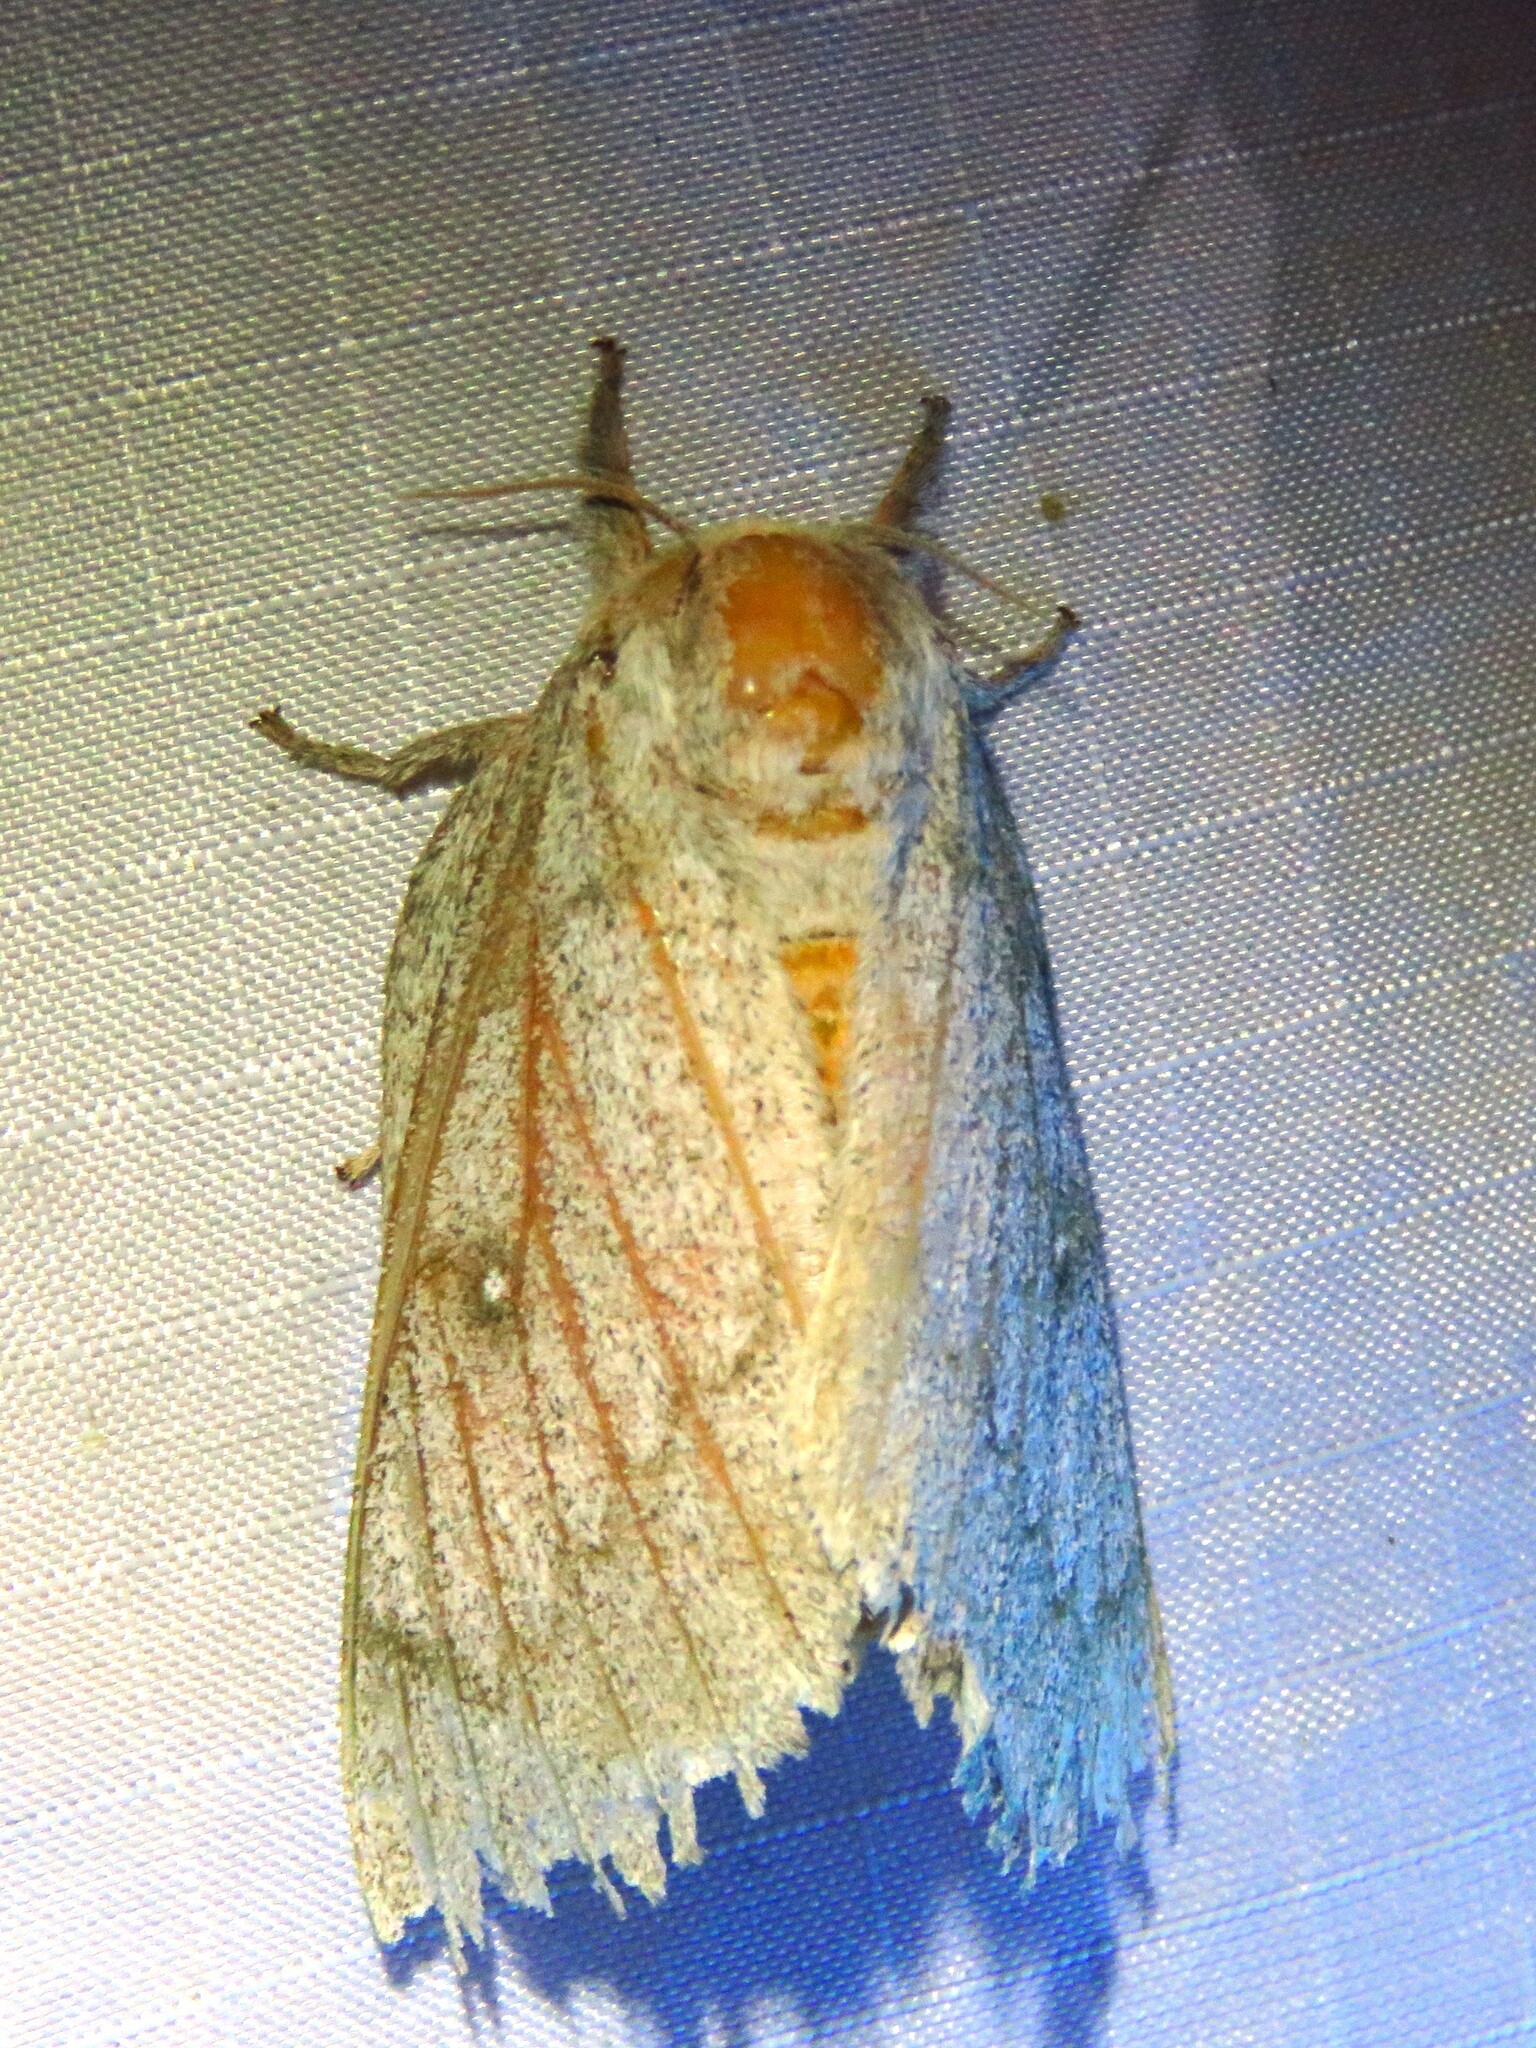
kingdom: Animalia
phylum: Arthropoda
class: Insecta
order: Lepidoptera
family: Saturniidae
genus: Syssphinx
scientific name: Syssphinx heiligbrodti
